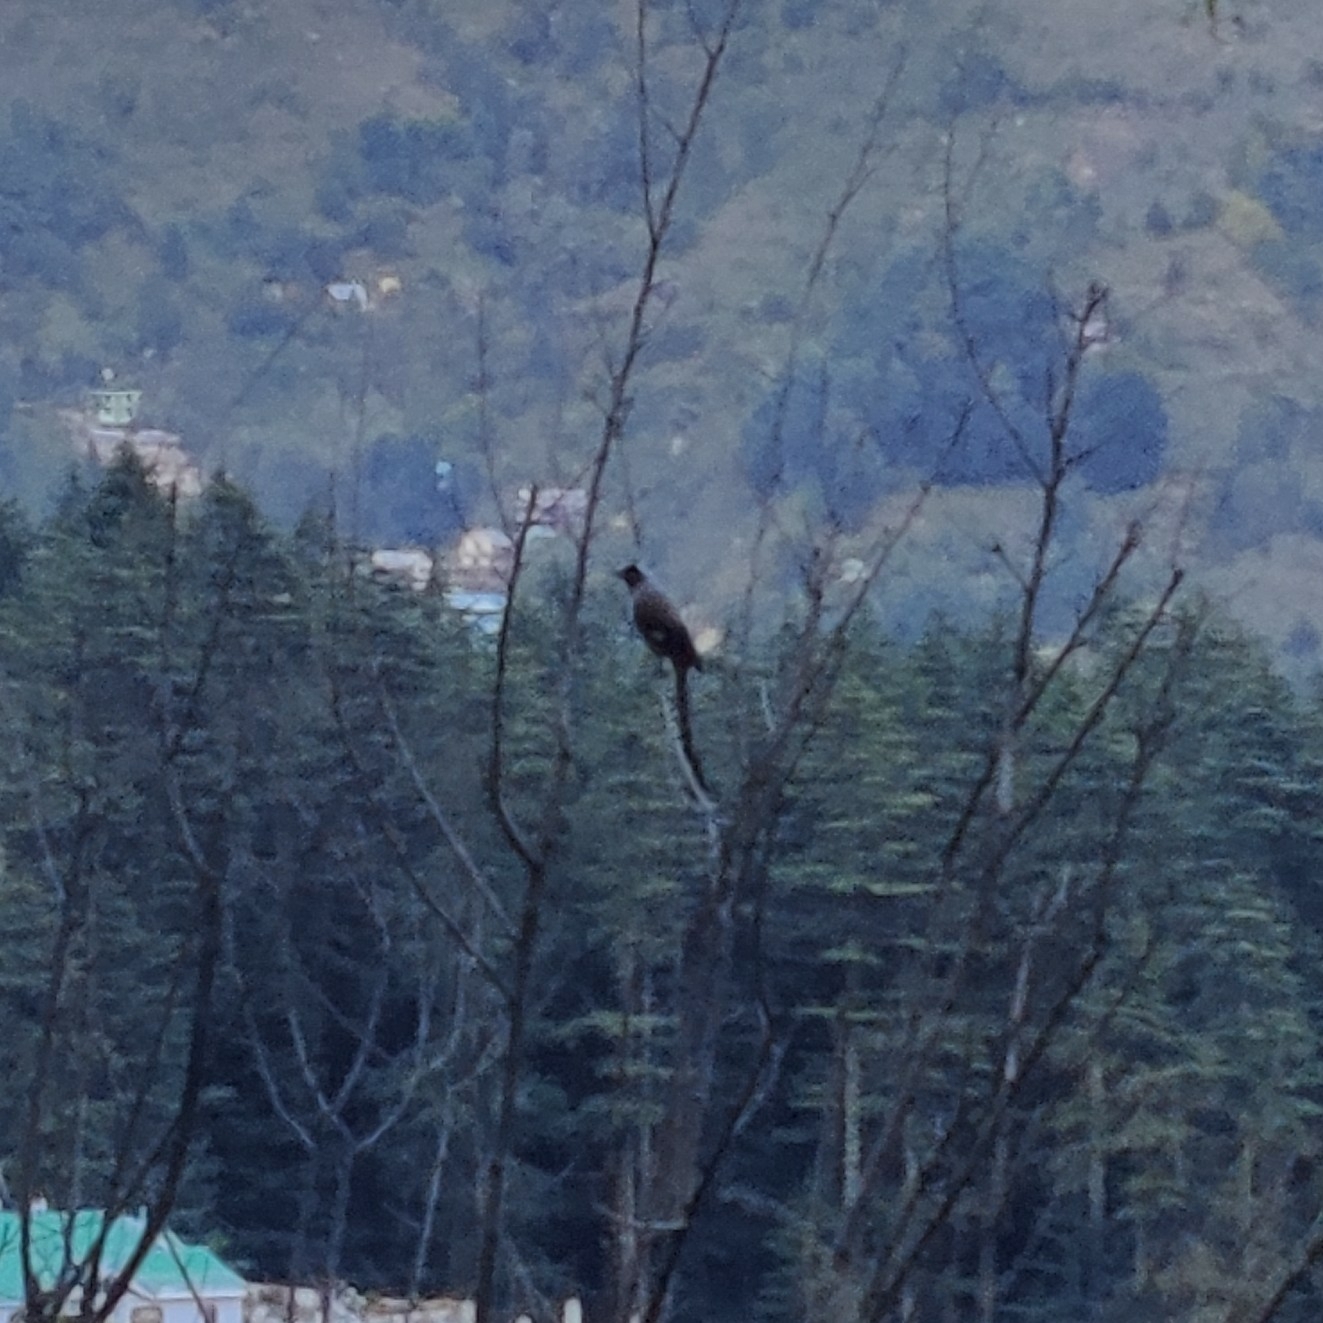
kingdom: Animalia
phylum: Chordata
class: Aves
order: Passeriformes
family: Corvidae
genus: Dendrocitta
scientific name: Dendrocitta formosae
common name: Grey treepie
